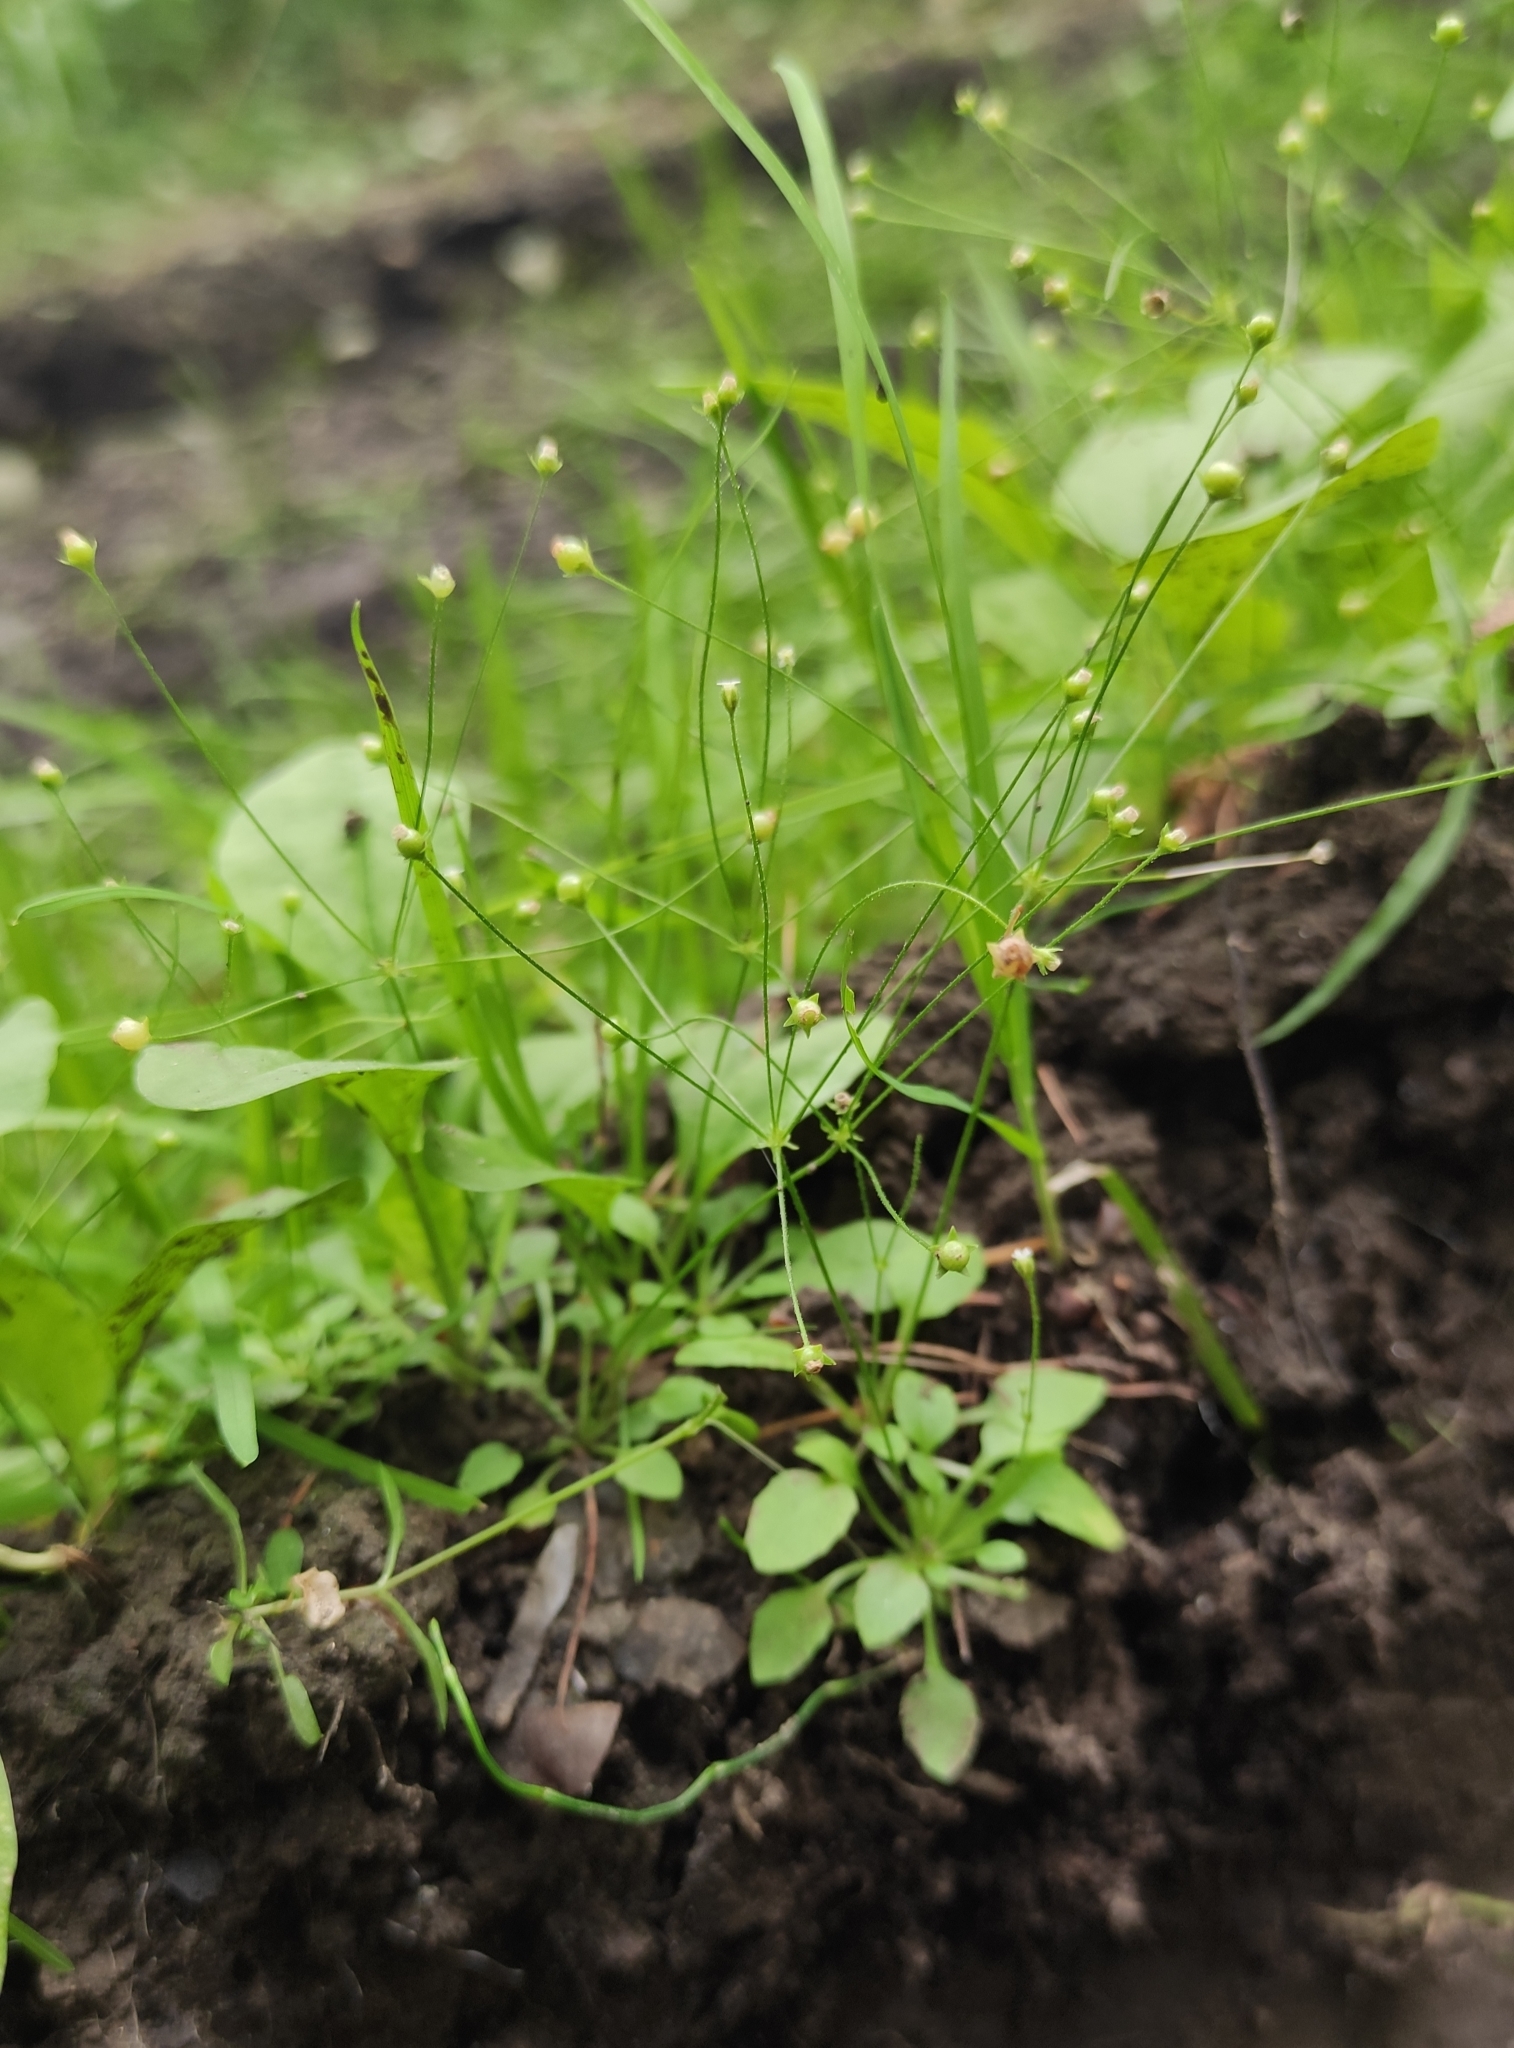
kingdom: Plantae
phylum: Tracheophyta
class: Magnoliopsida
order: Ericales
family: Primulaceae
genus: Androsace
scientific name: Androsace filiformis
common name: Filiform rock jasmine
